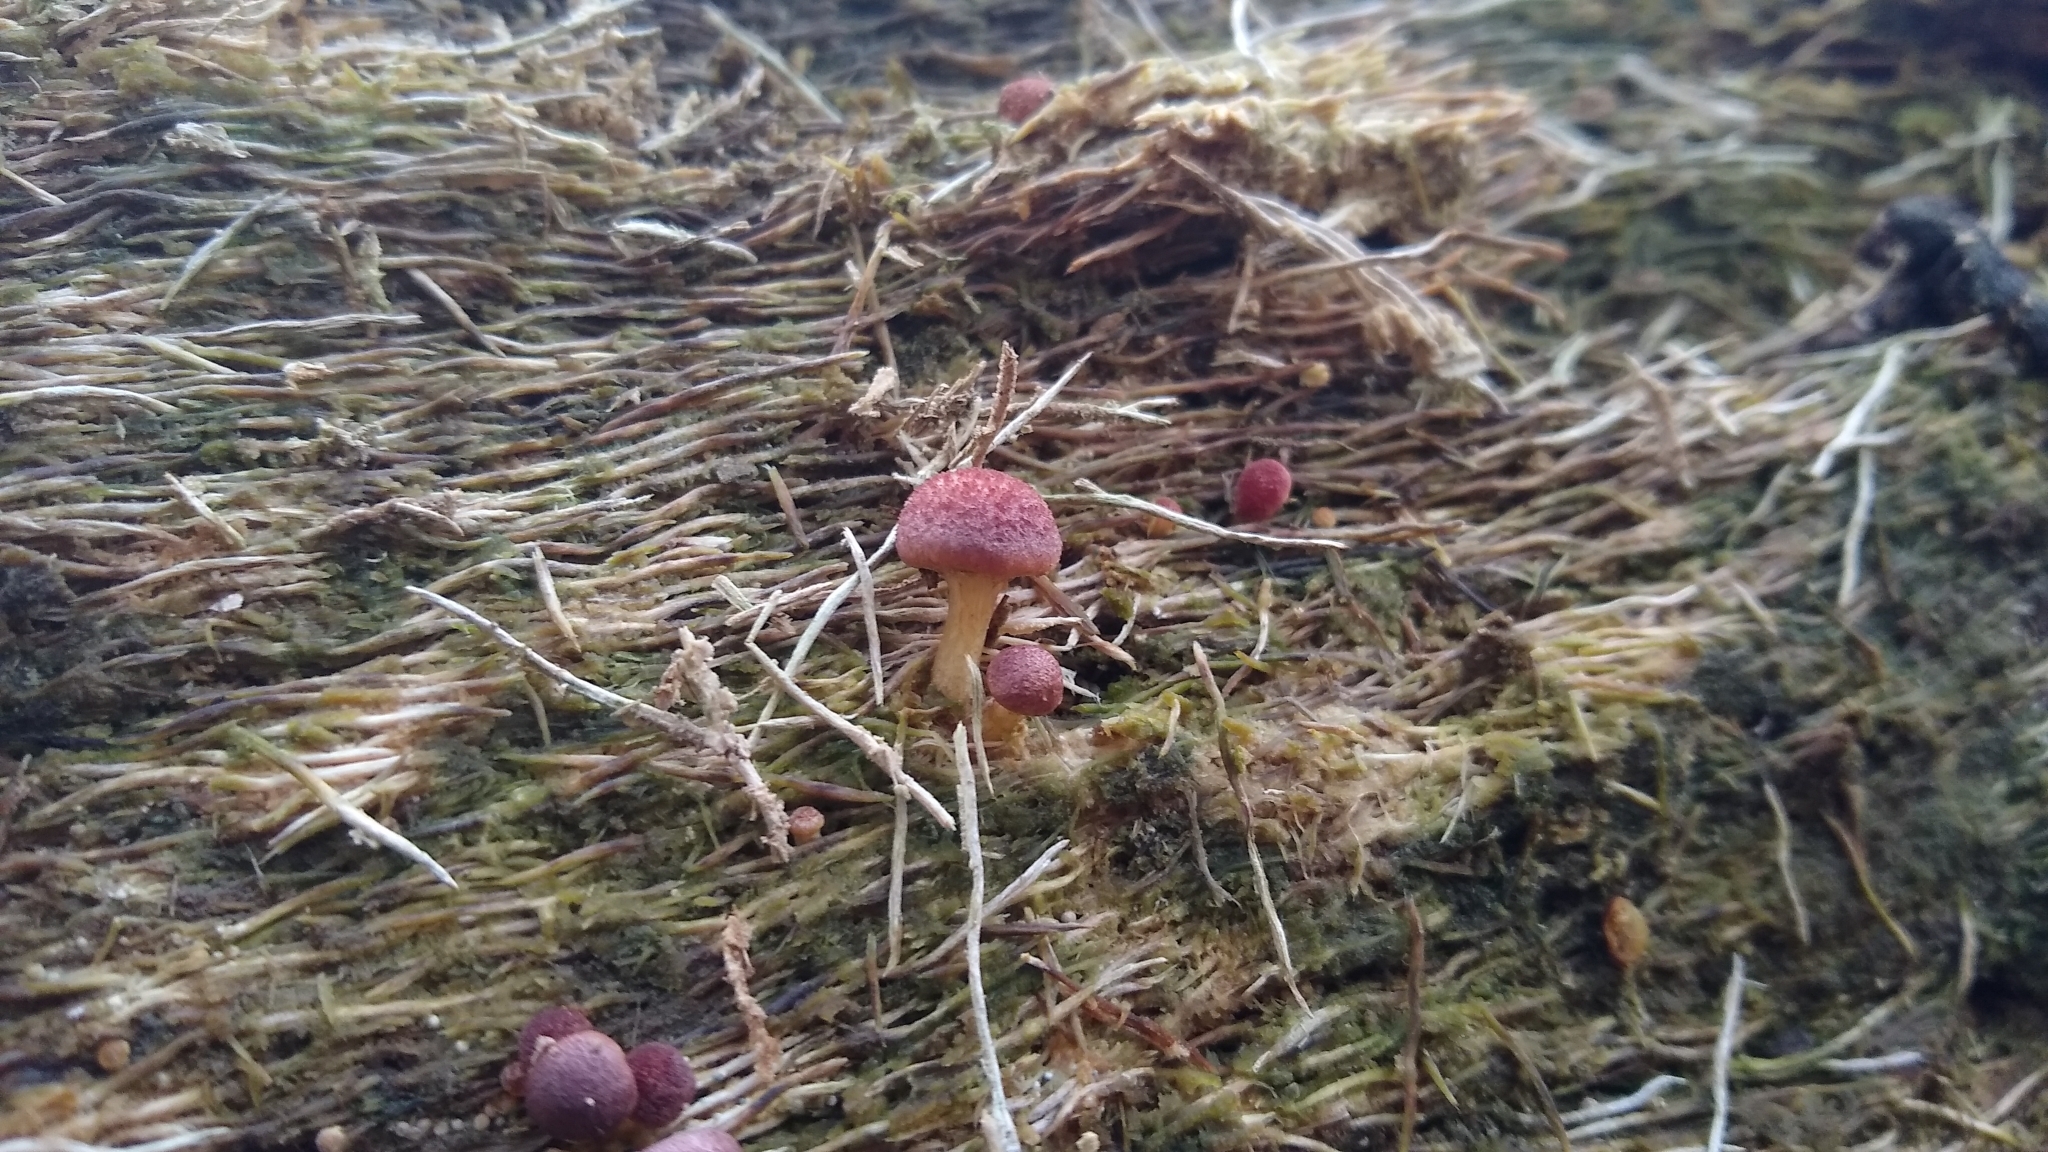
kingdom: Fungi
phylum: Basidiomycota
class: Agaricomycetes
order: Agaricales
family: Hymenogastraceae
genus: Gymnopilus
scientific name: Gymnopilus purpuratus
